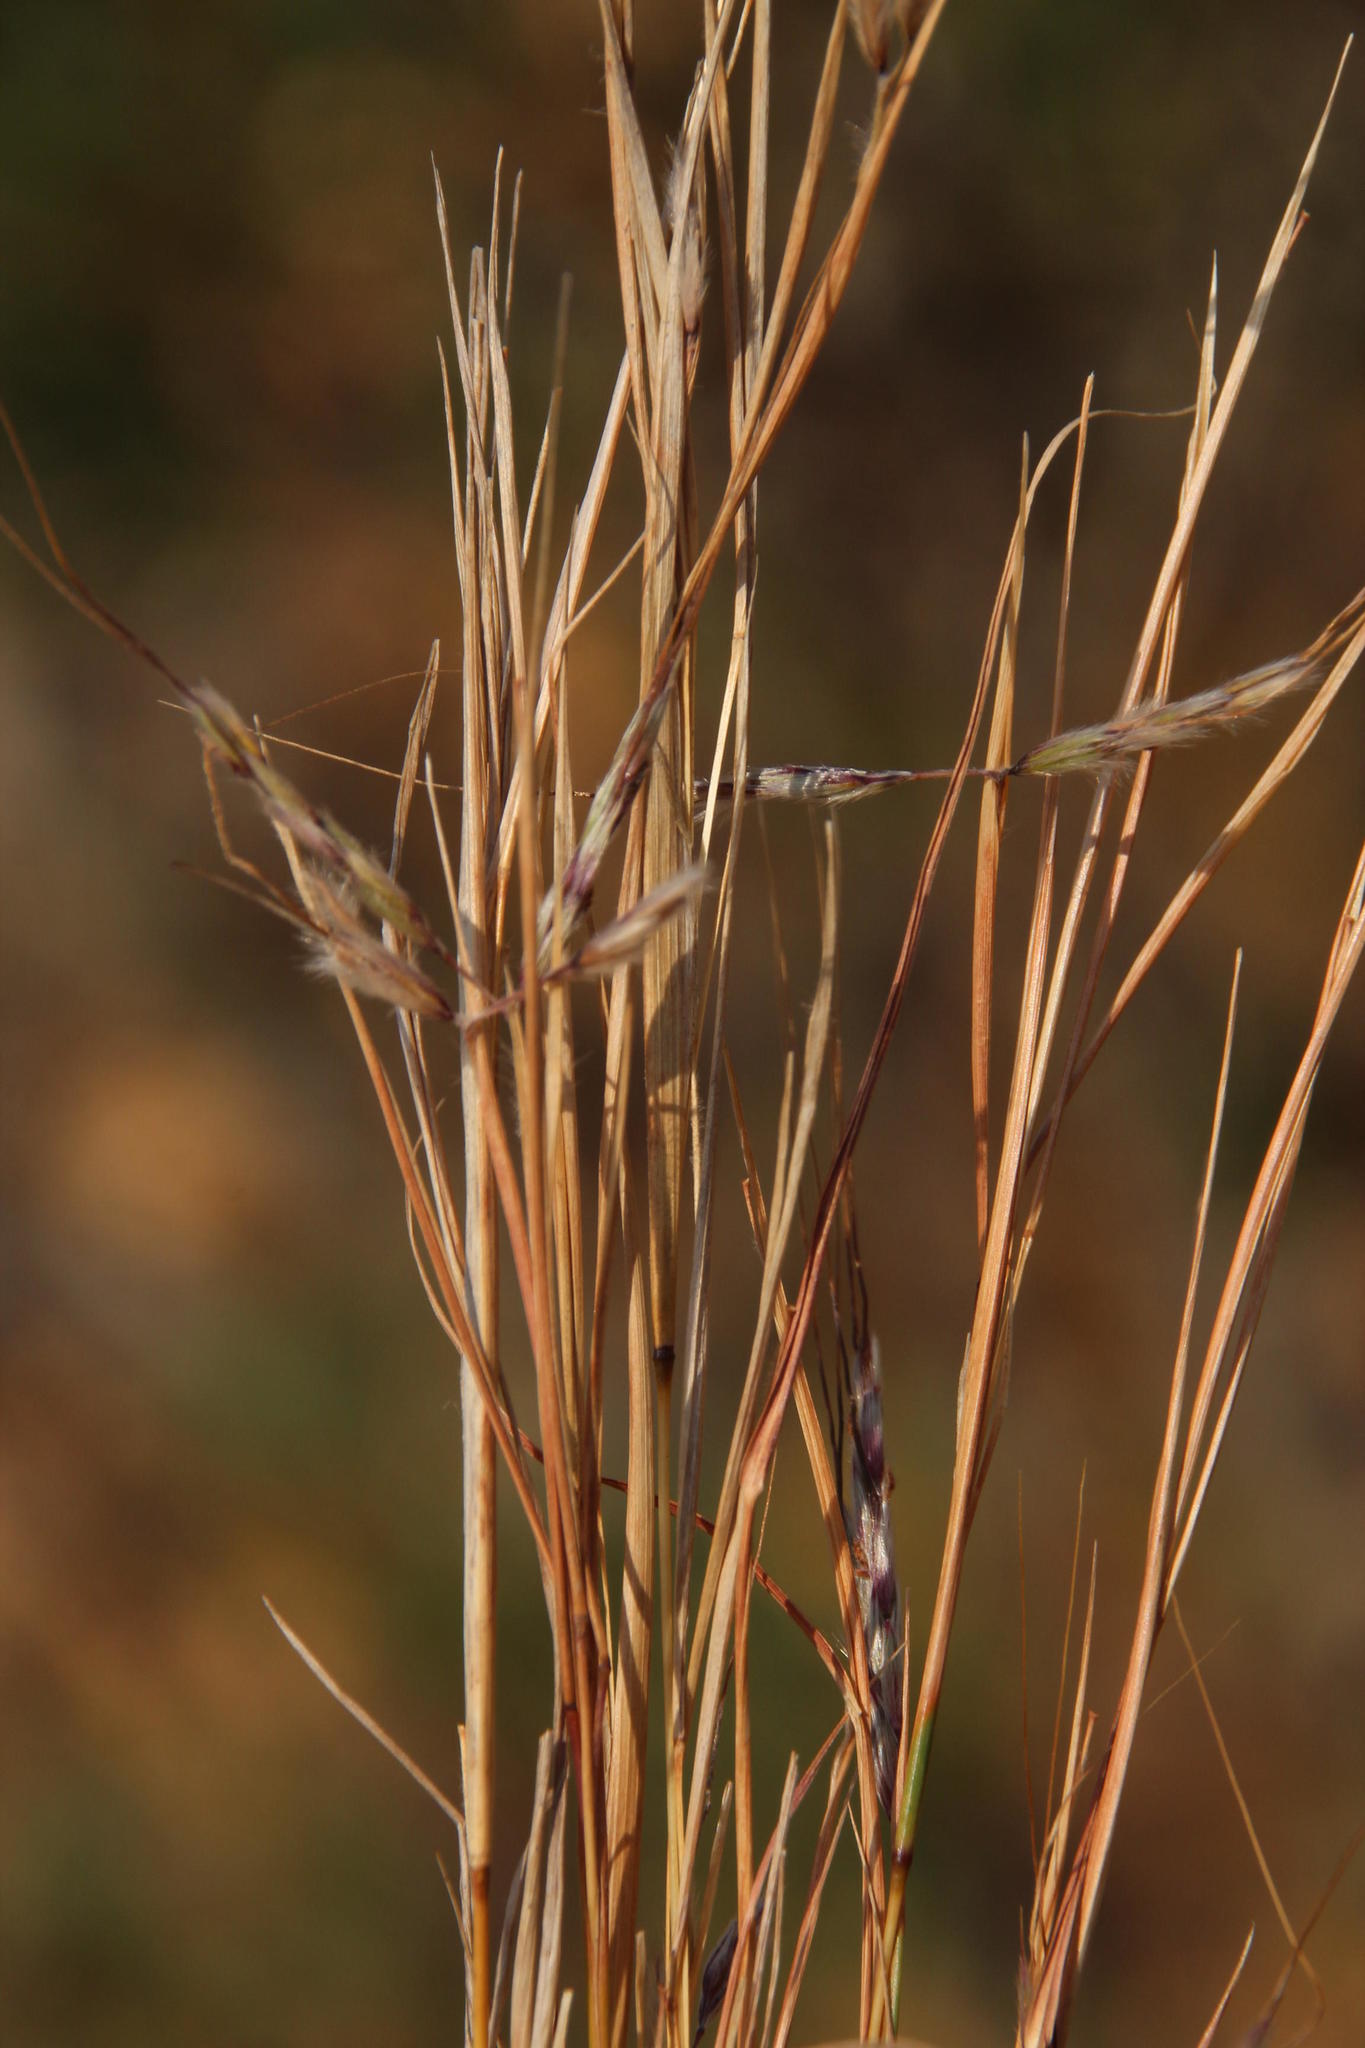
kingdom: Plantae
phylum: Tracheophyta
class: Liliopsida
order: Poales
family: Poaceae
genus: Hyparrhenia
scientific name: Hyparrhenia hirta
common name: Thatching grass
